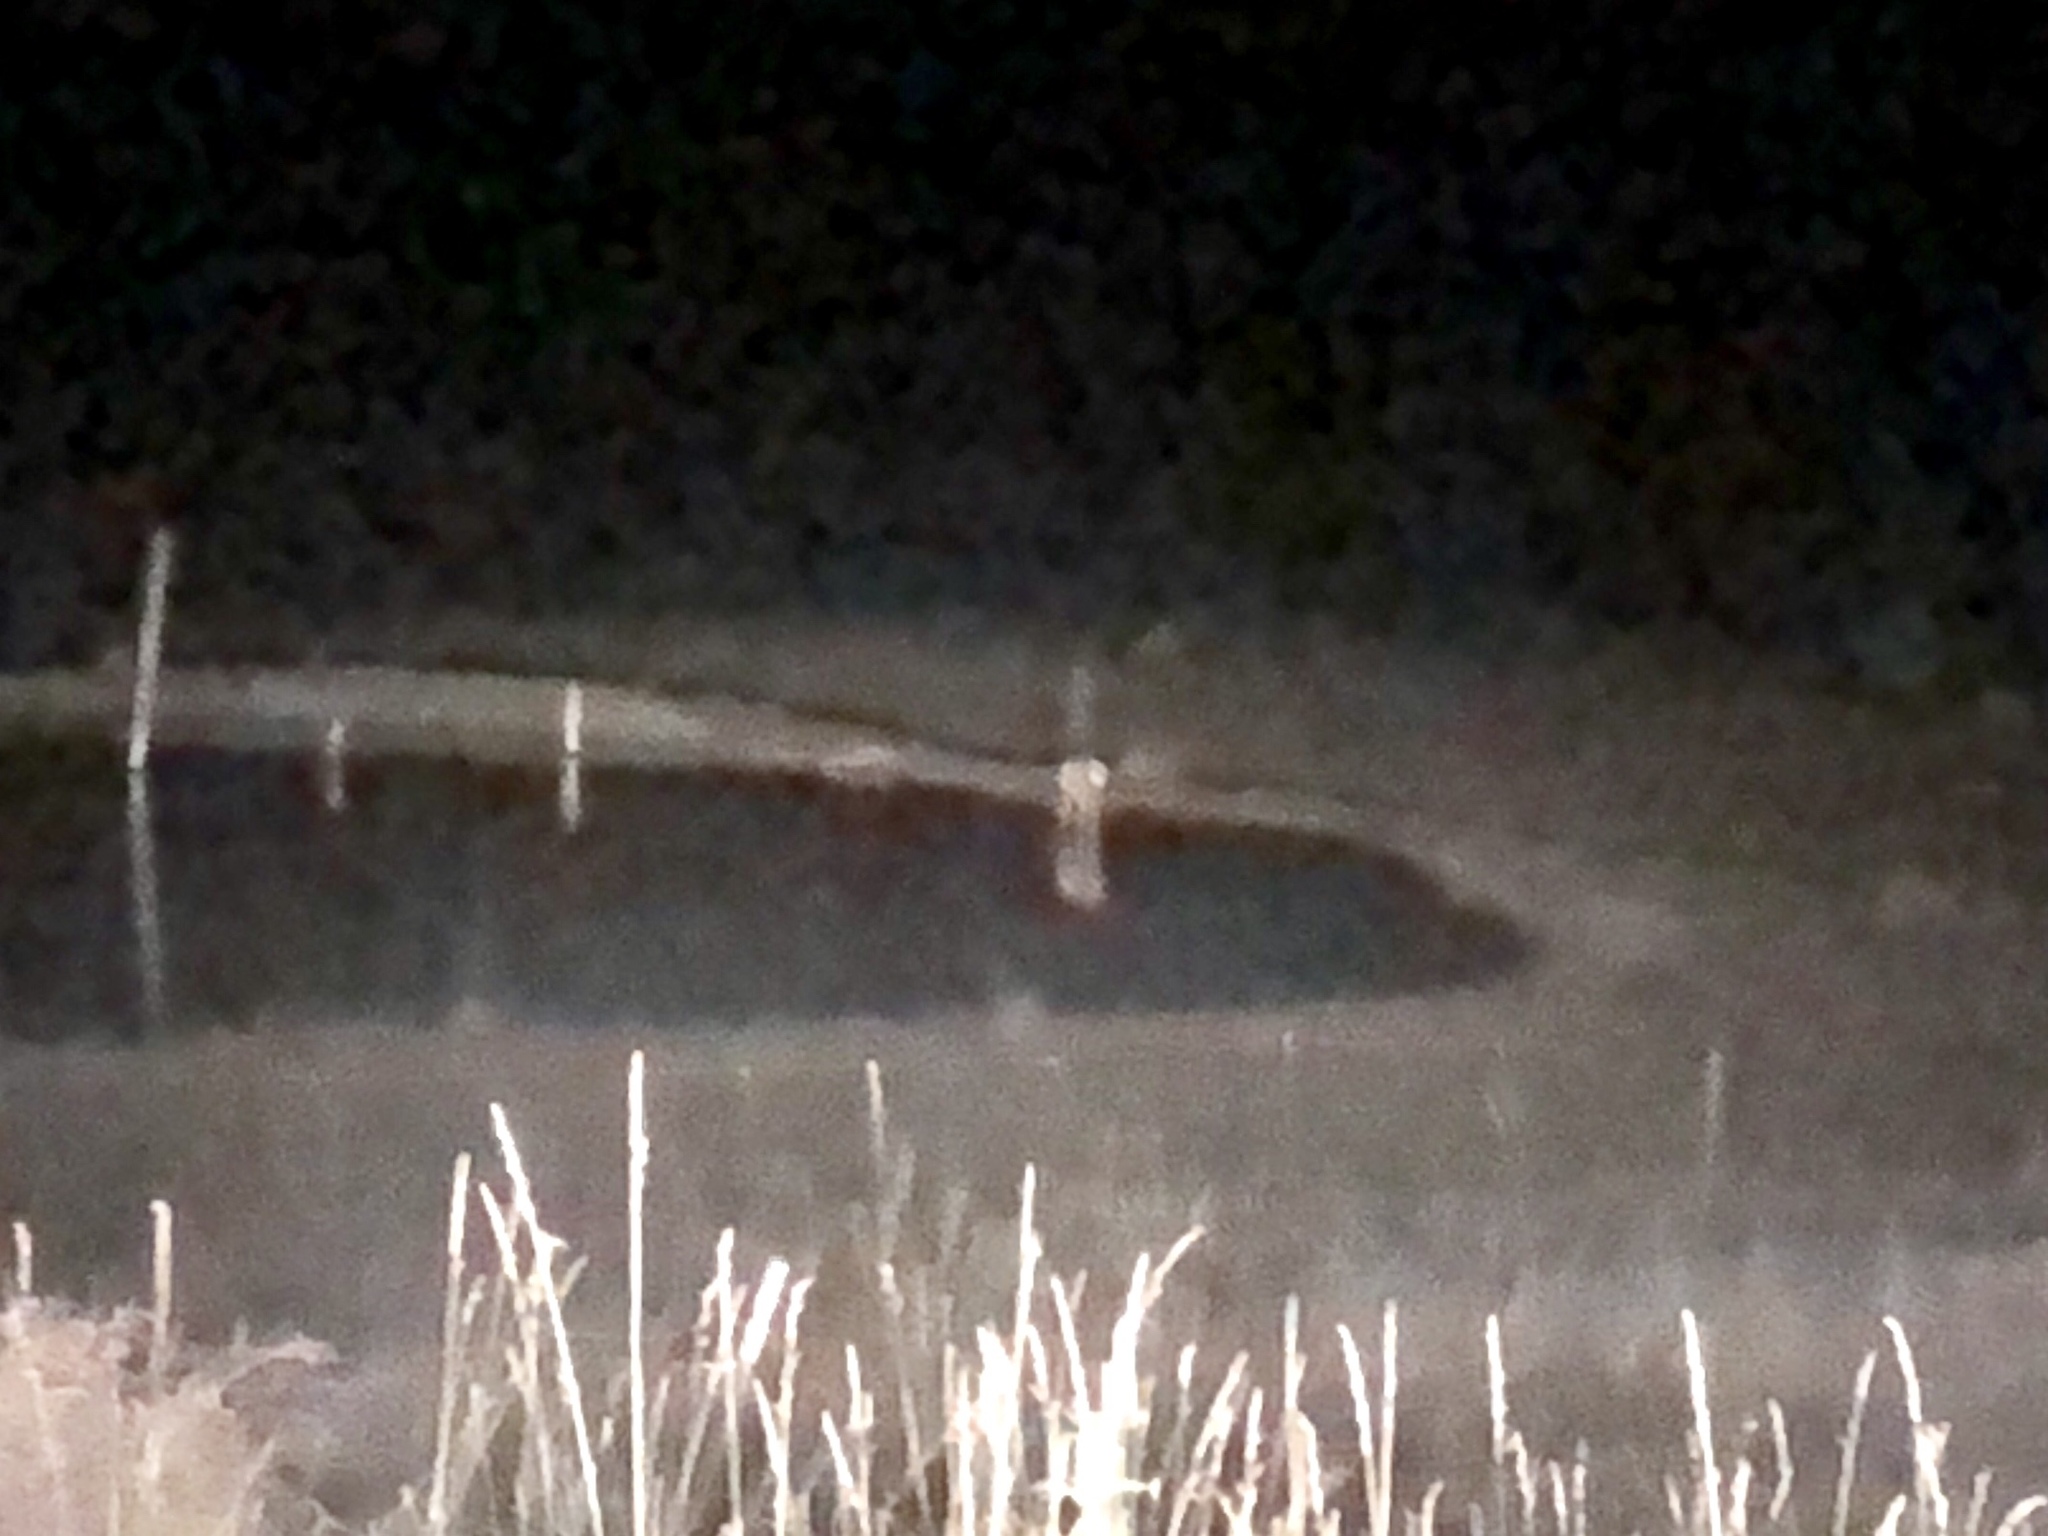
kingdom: Animalia
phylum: Chordata
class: Mammalia
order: Artiodactyla
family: Cervidae
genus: Cervus
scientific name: Cervus elaphus
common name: Red deer
